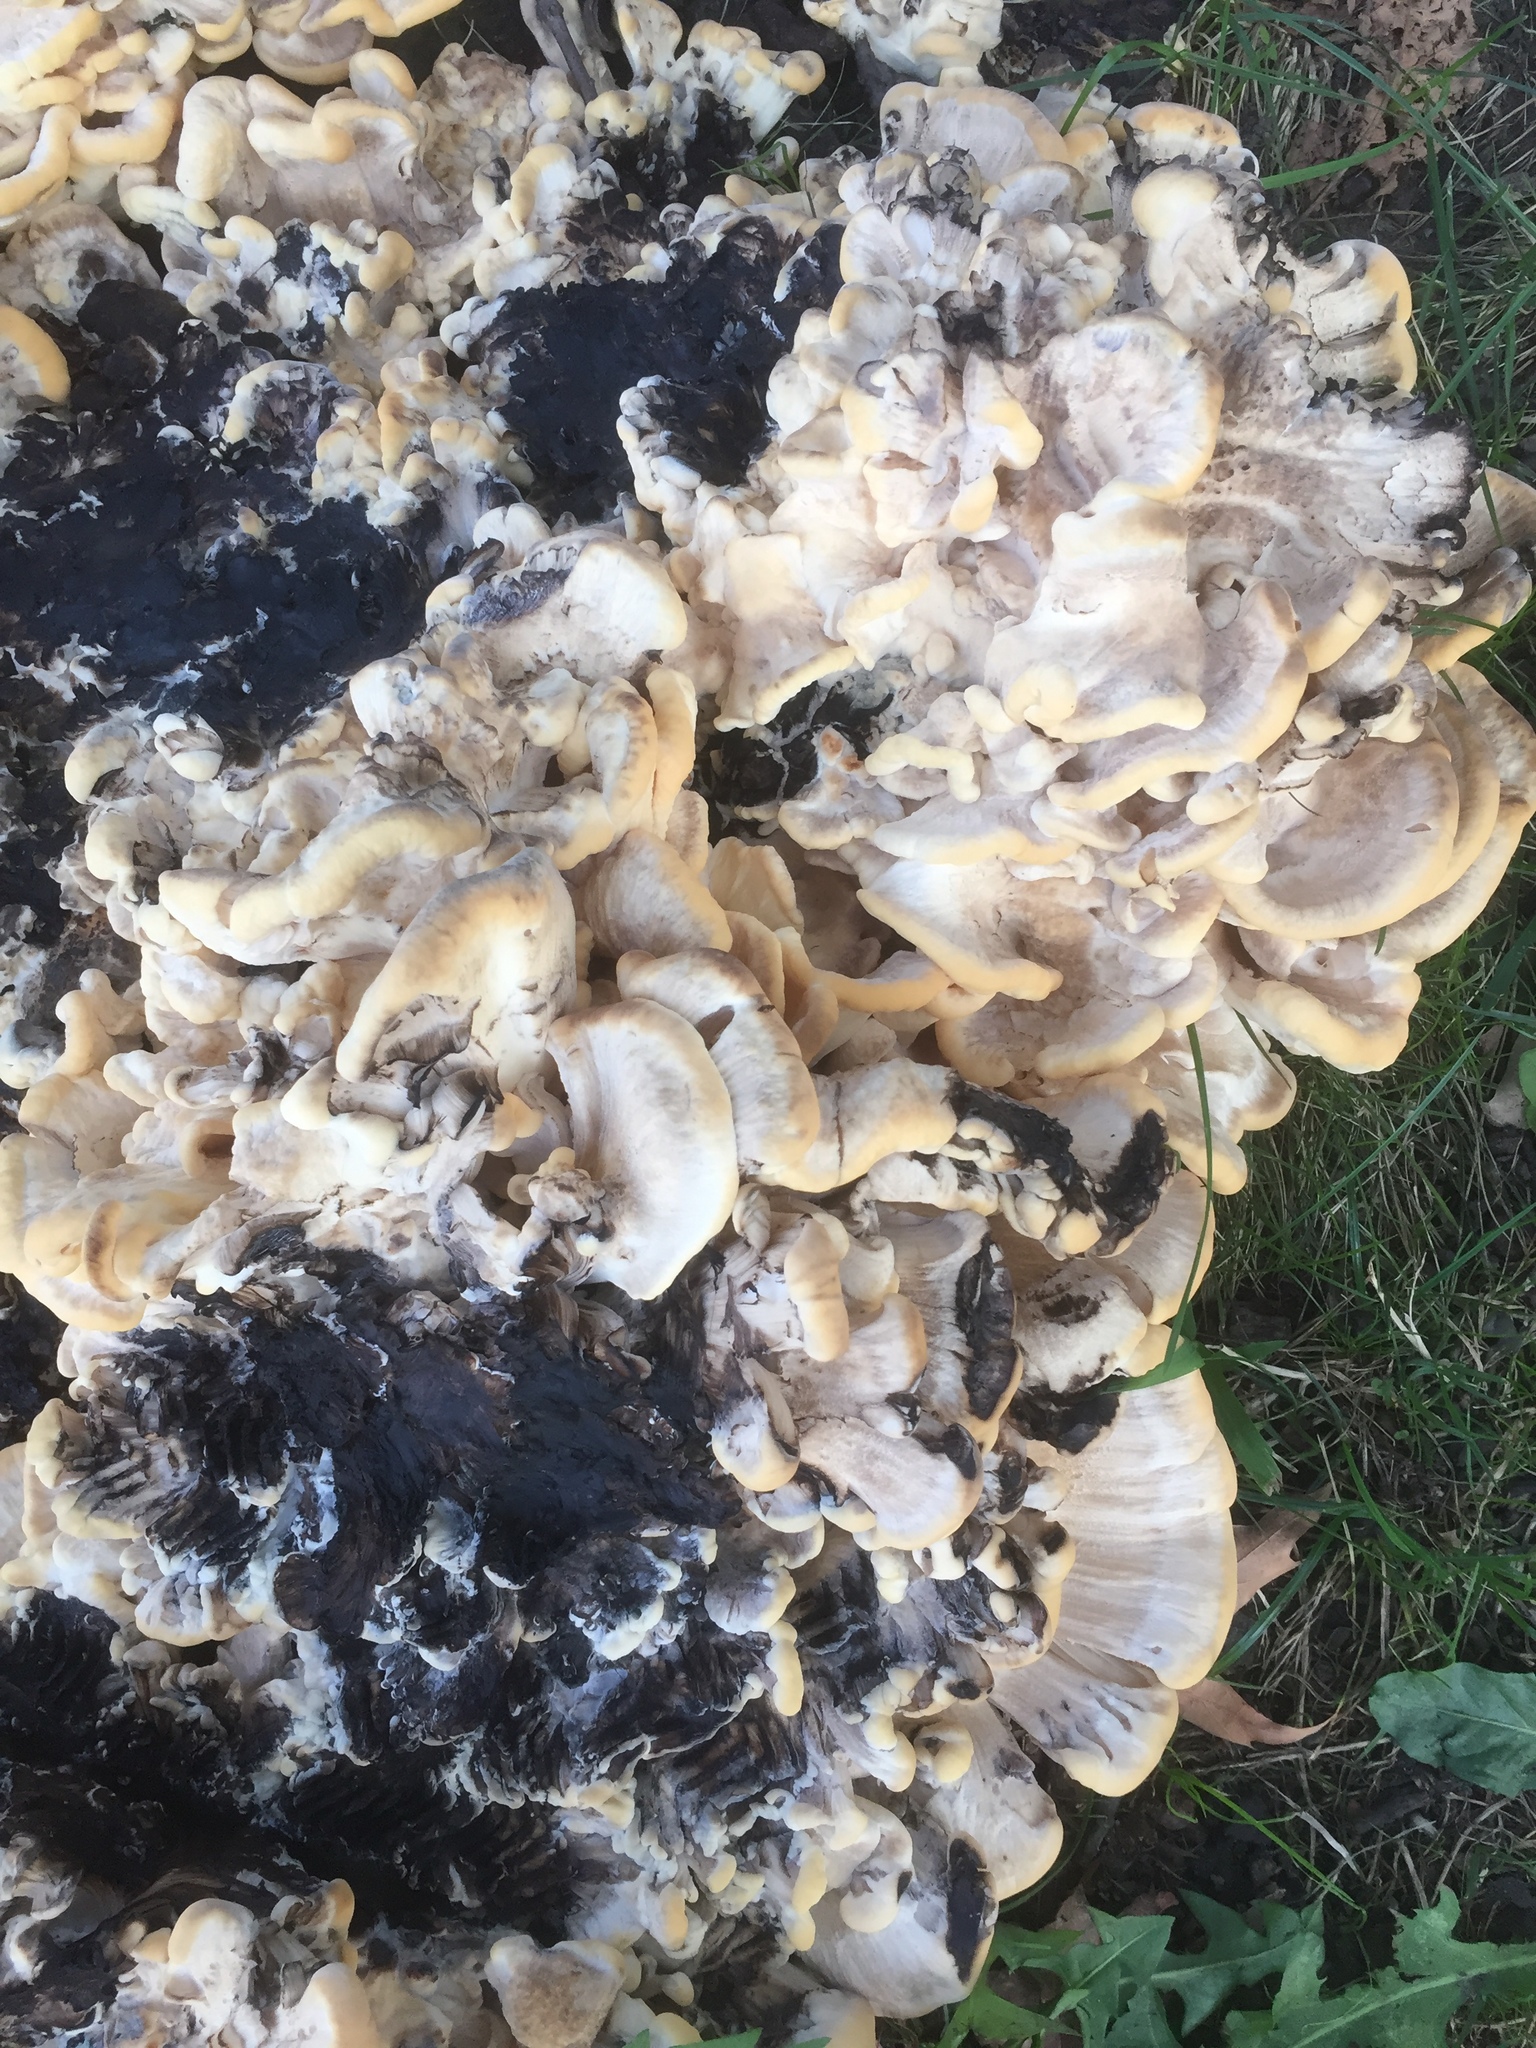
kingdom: Fungi
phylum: Basidiomycota
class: Agaricomycetes
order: Polyporales
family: Meripilaceae
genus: Meripilus
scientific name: Meripilus sumstinei
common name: Black-staining polypore
